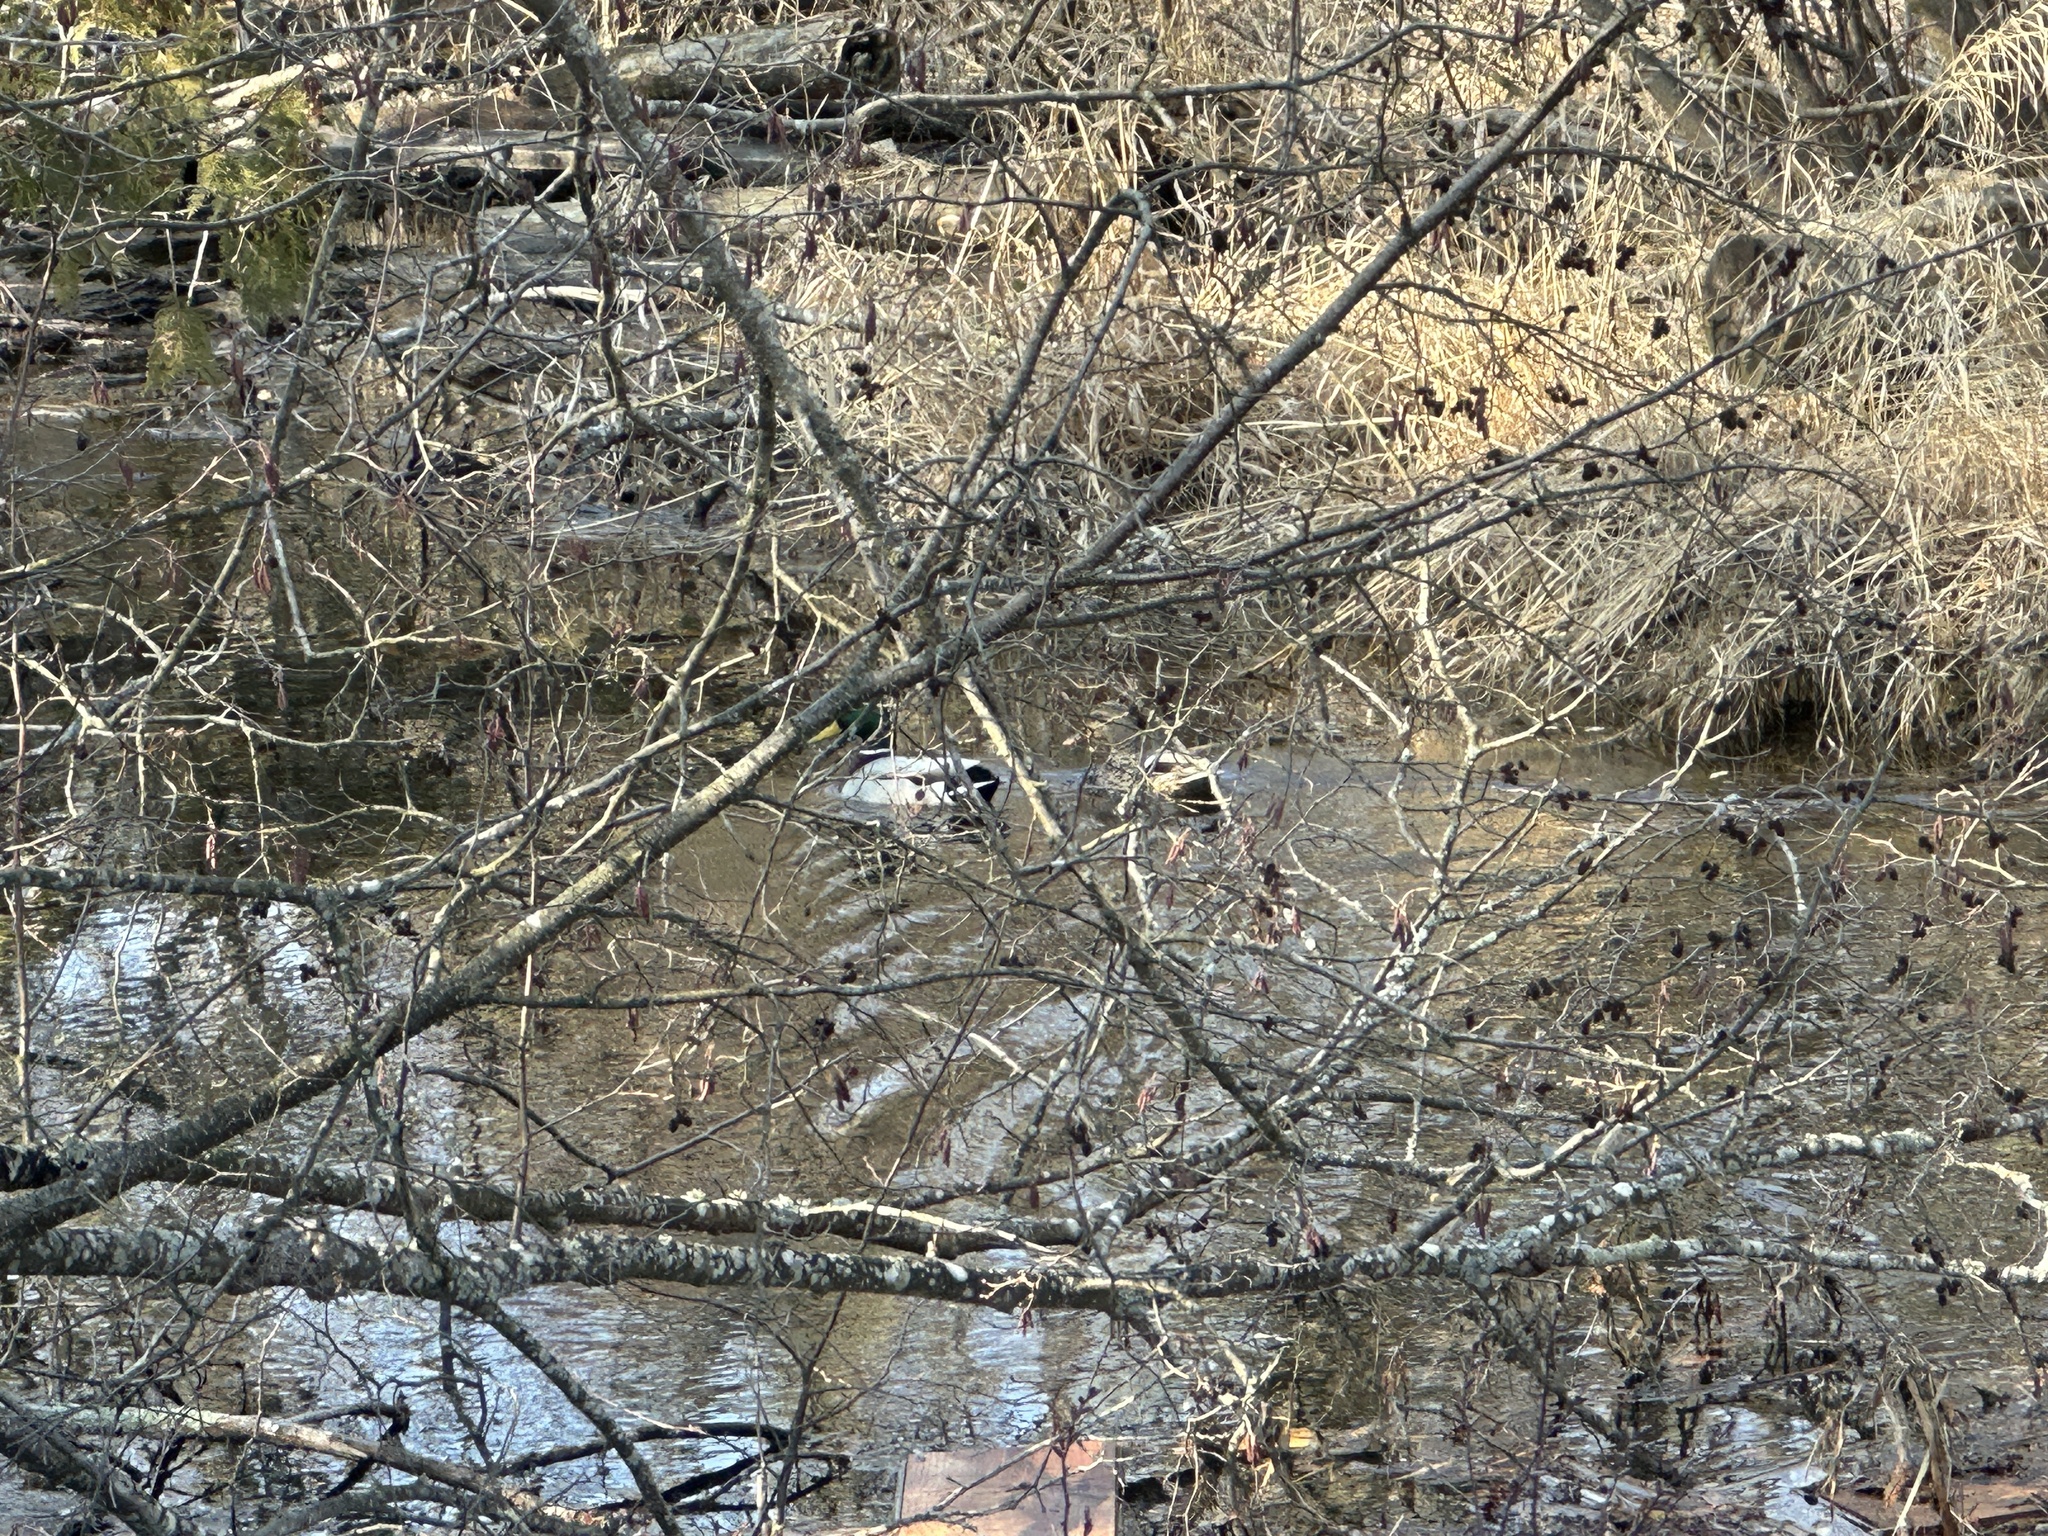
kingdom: Animalia
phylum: Chordata
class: Aves
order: Anseriformes
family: Anatidae
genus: Anas
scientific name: Anas platyrhynchos
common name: Mallard
